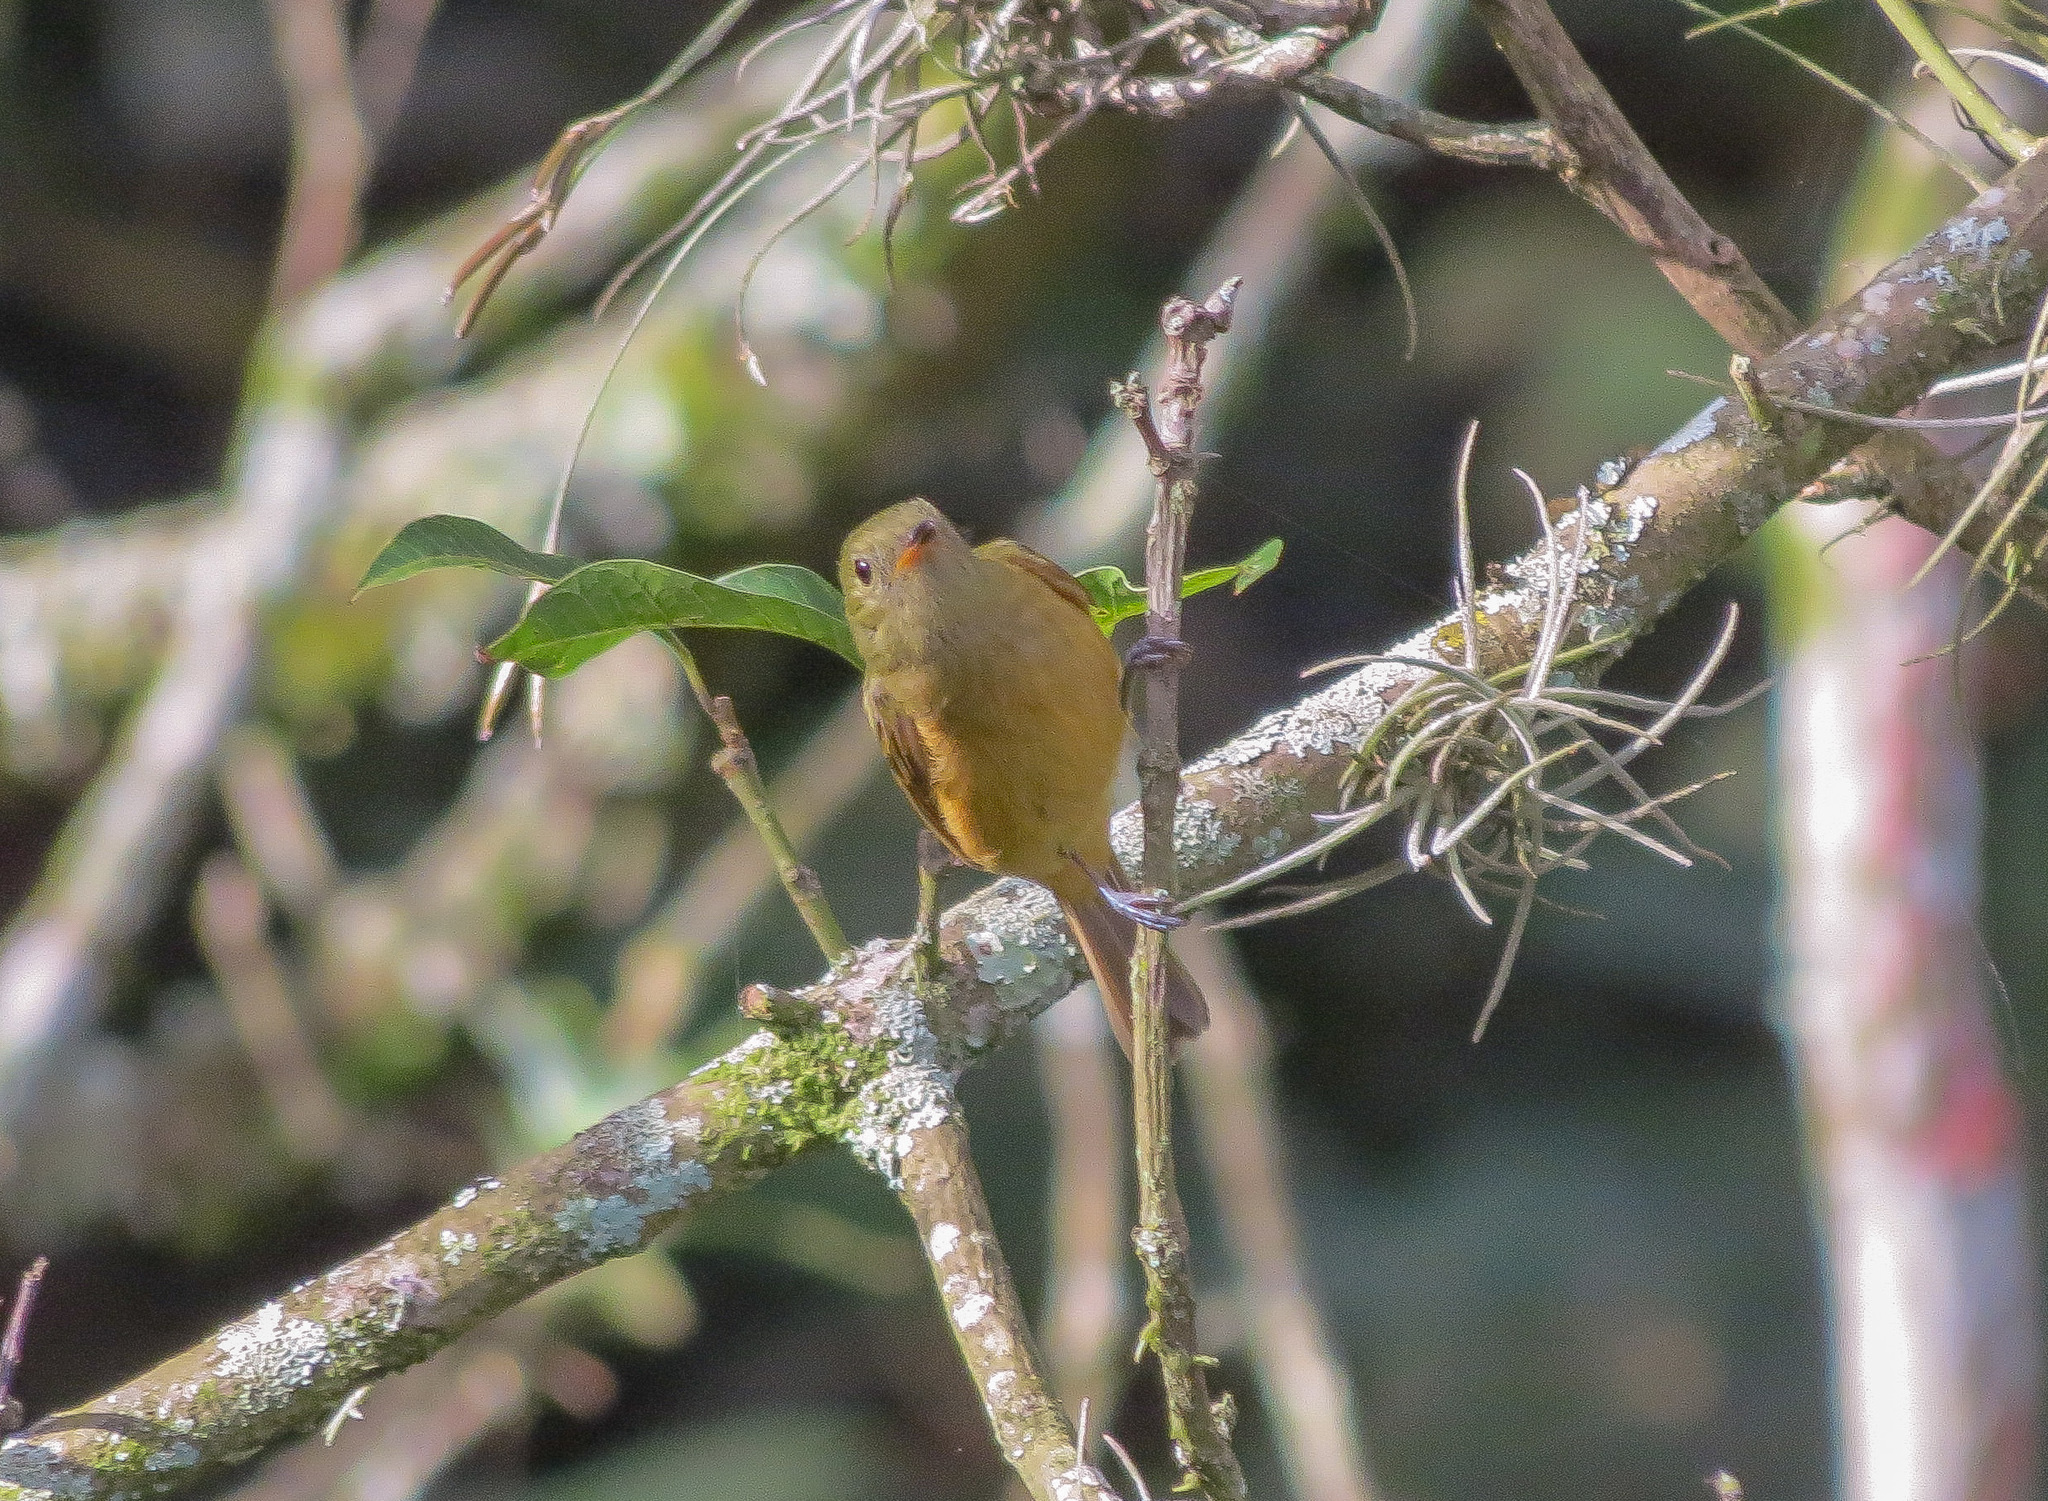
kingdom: Animalia
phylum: Chordata
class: Aves
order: Passeriformes
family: Tyrannidae
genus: Mionectes
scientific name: Mionectes oleagineus
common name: Ochre-bellied flycatcher
